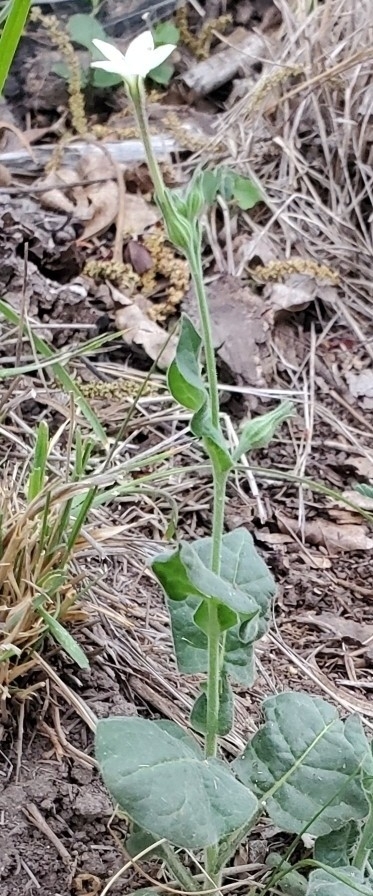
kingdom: Plantae
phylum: Tracheophyta
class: Magnoliopsida
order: Solanales
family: Solanaceae
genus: Nicotiana
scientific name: Nicotiana repanda
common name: Fiddle-leaf tobacco
